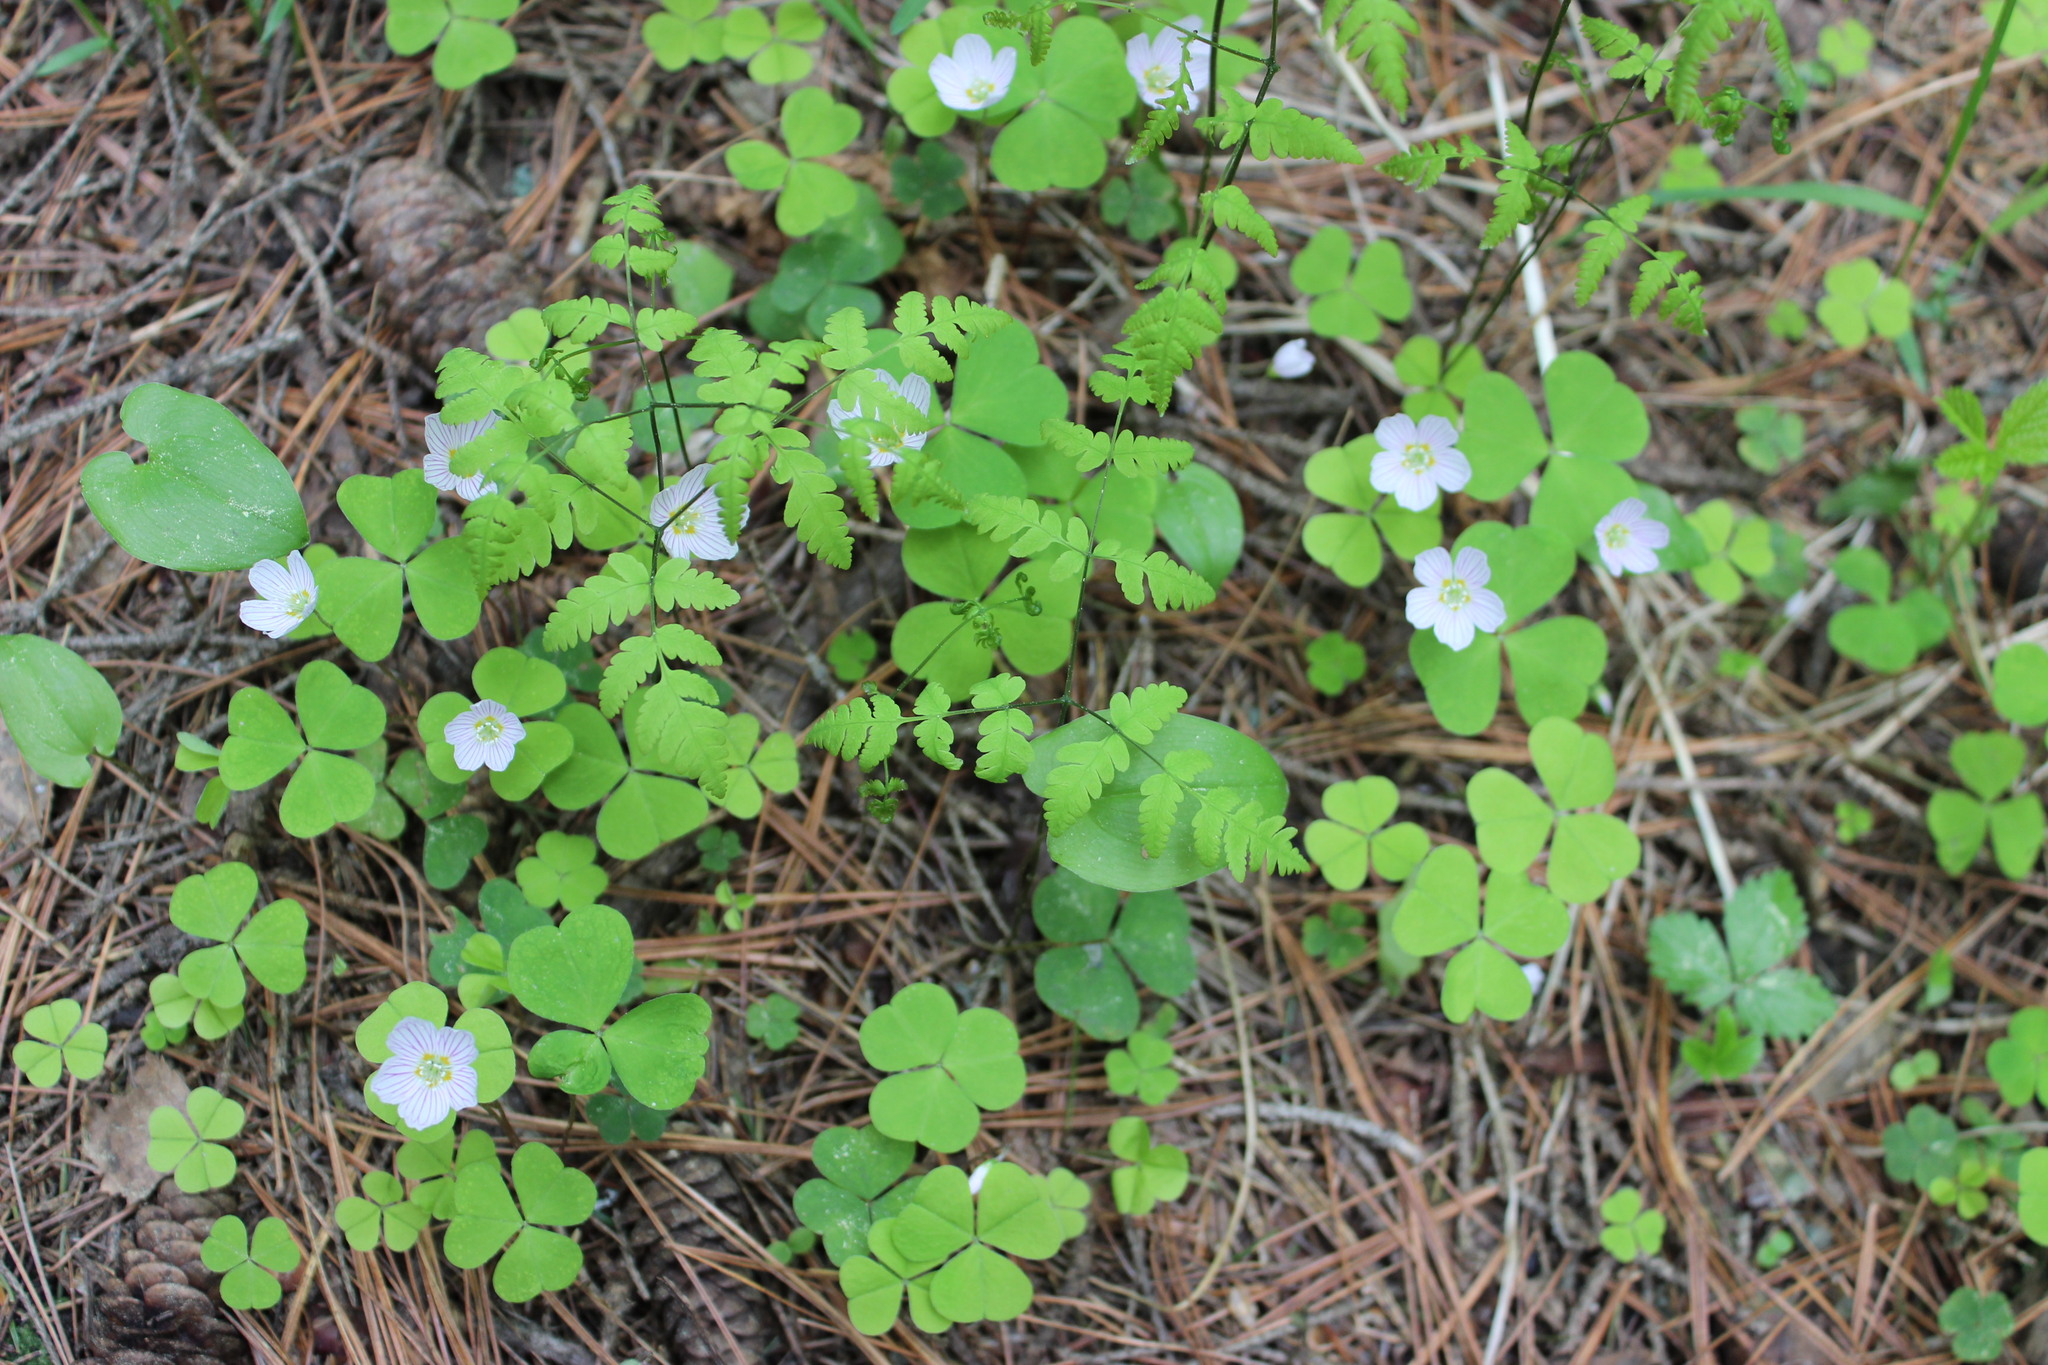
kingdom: Plantae
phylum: Tracheophyta
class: Polypodiopsida
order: Polypodiales
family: Cystopteridaceae
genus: Gymnocarpium
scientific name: Gymnocarpium dryopteris
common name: Oak fern
